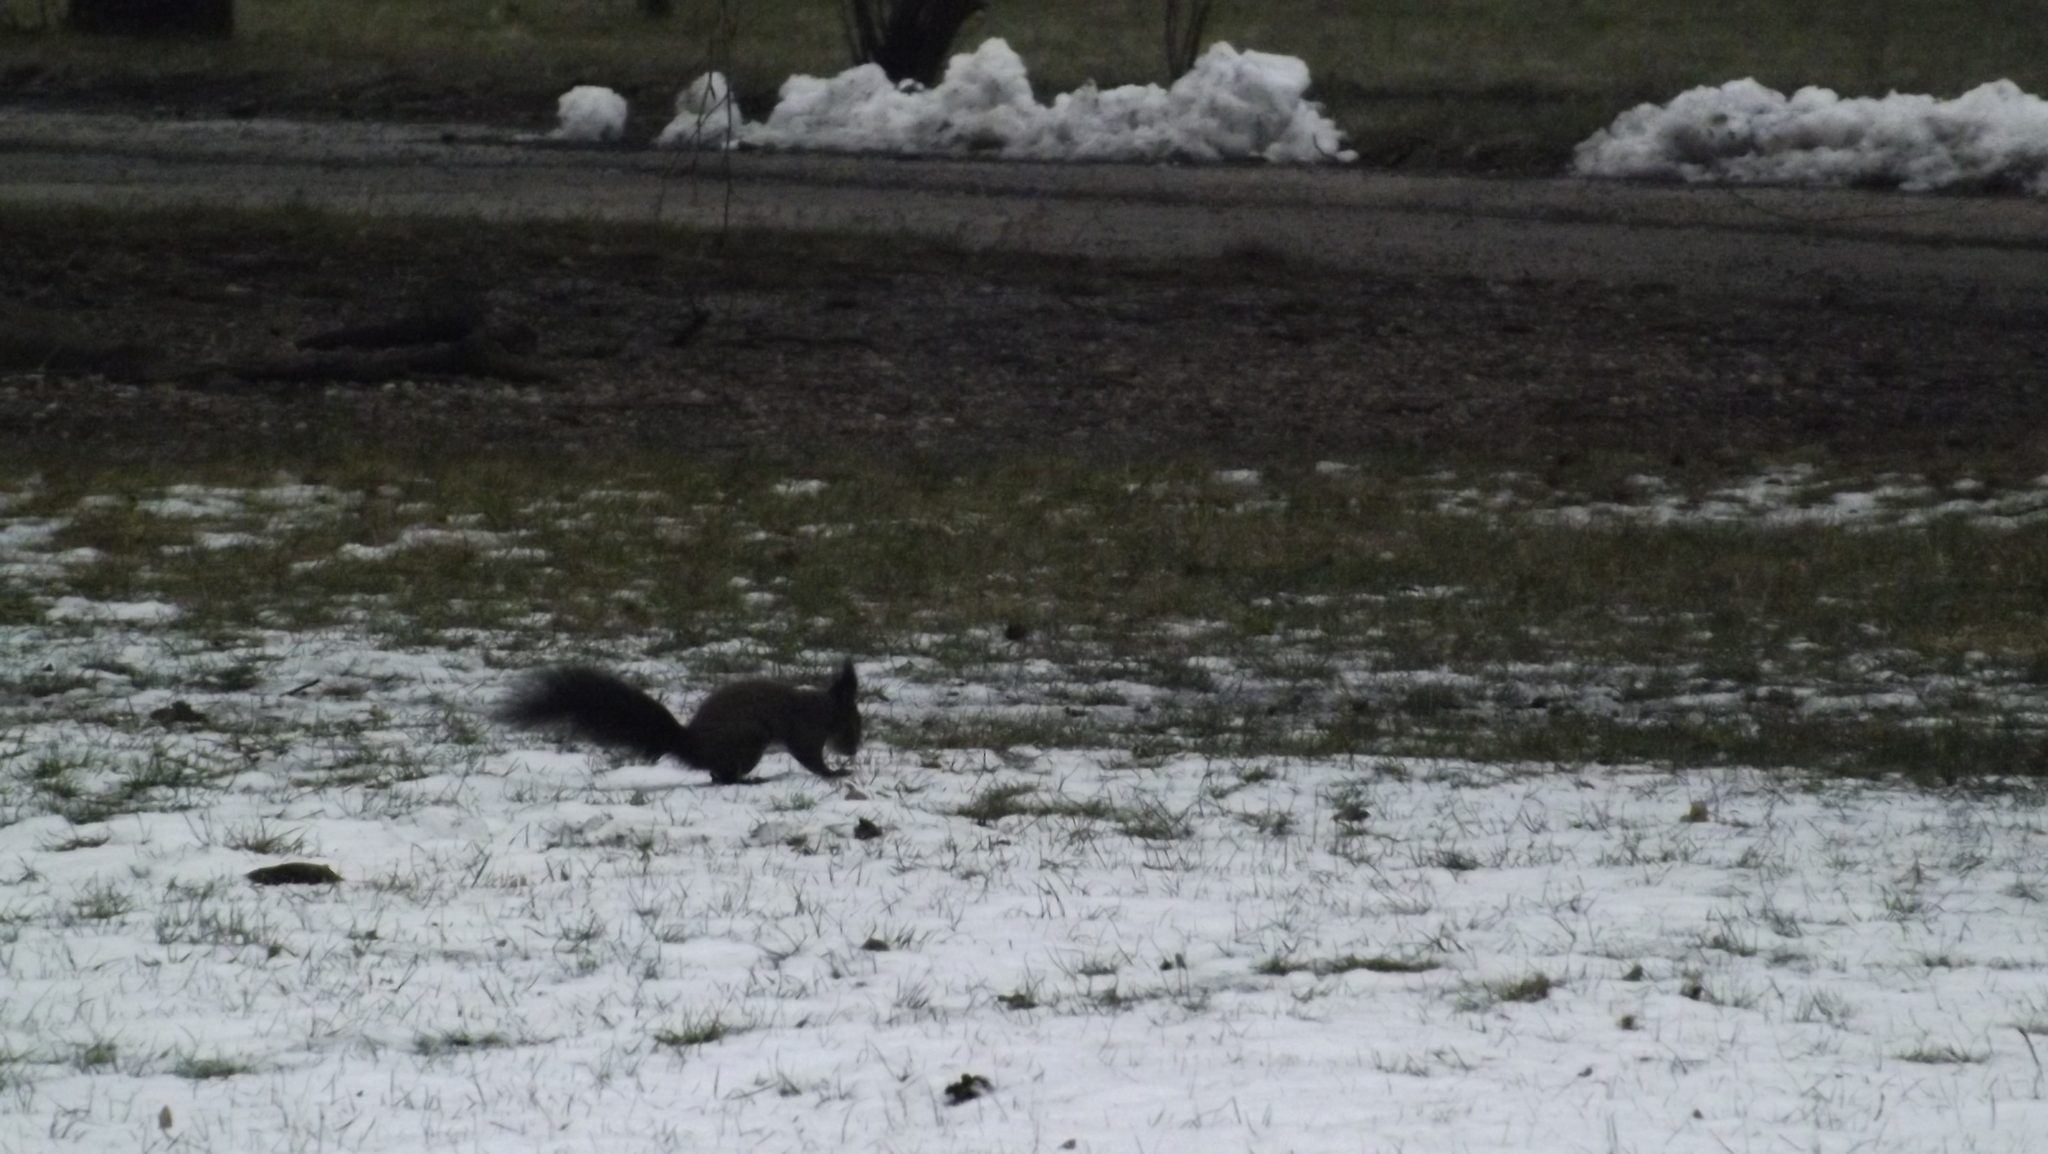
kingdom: Animalia
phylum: Chordata
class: Mammalia
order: Rodentia
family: Sciuridae
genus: Sciurus
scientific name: Sciurus vulgaris
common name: Eurasian red squirrel
